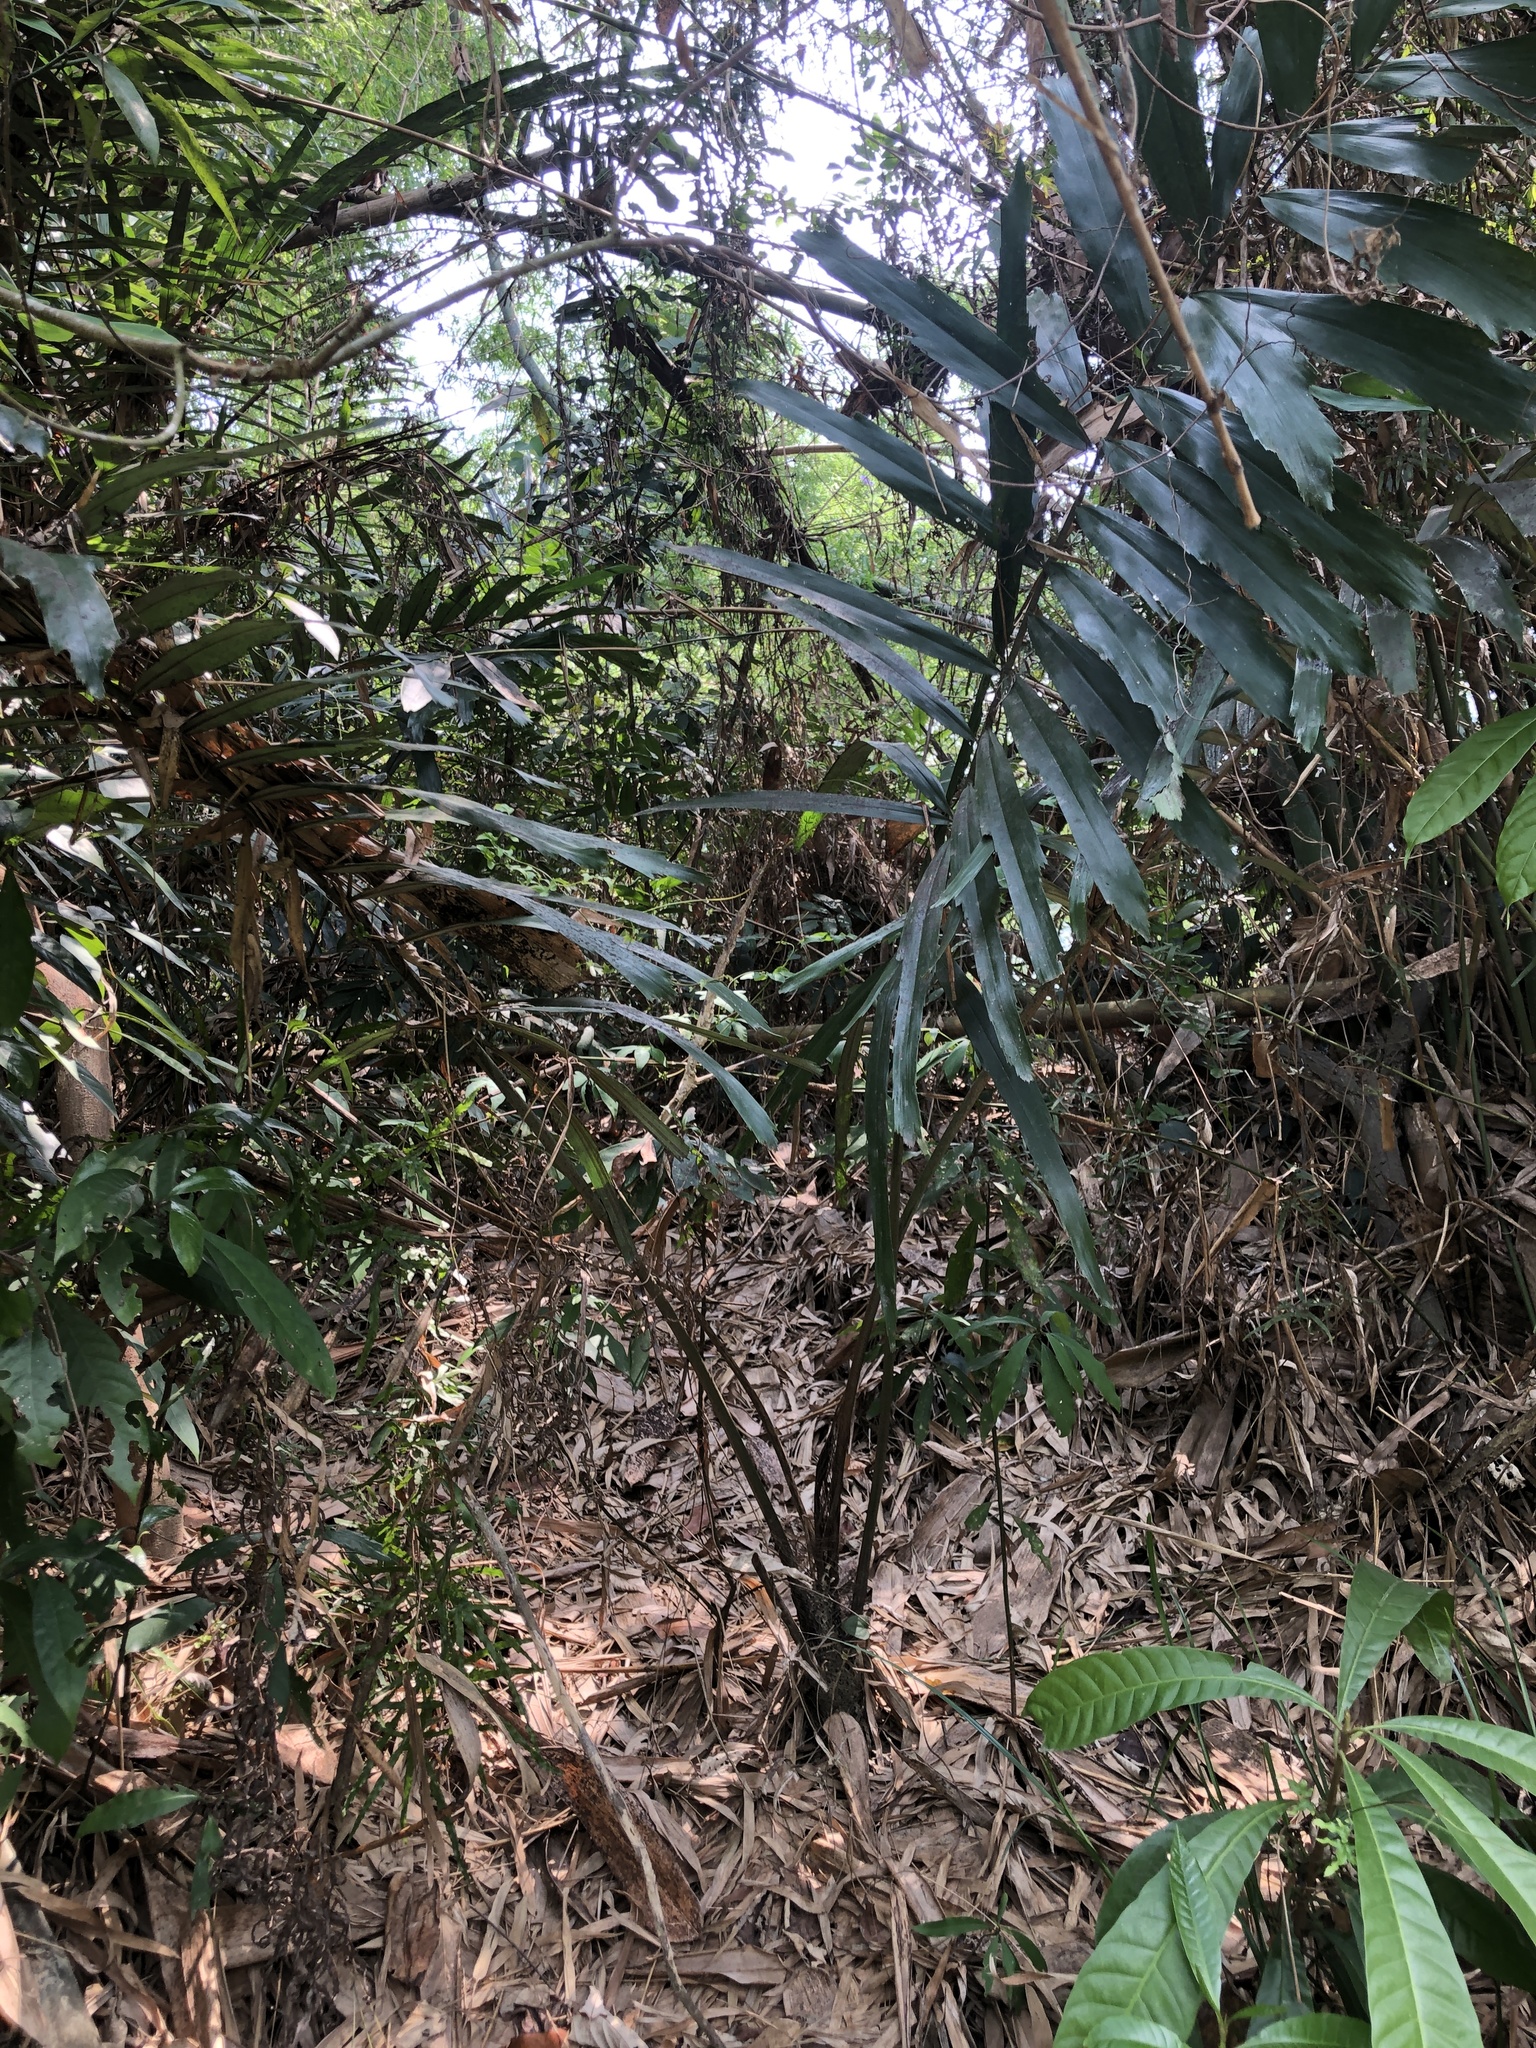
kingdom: Plantae
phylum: Tracheophyta
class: Liliopsida
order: Arecales
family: Arecaceae
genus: Arenga
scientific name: Arenga engleri
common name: Formosan sugar palm
